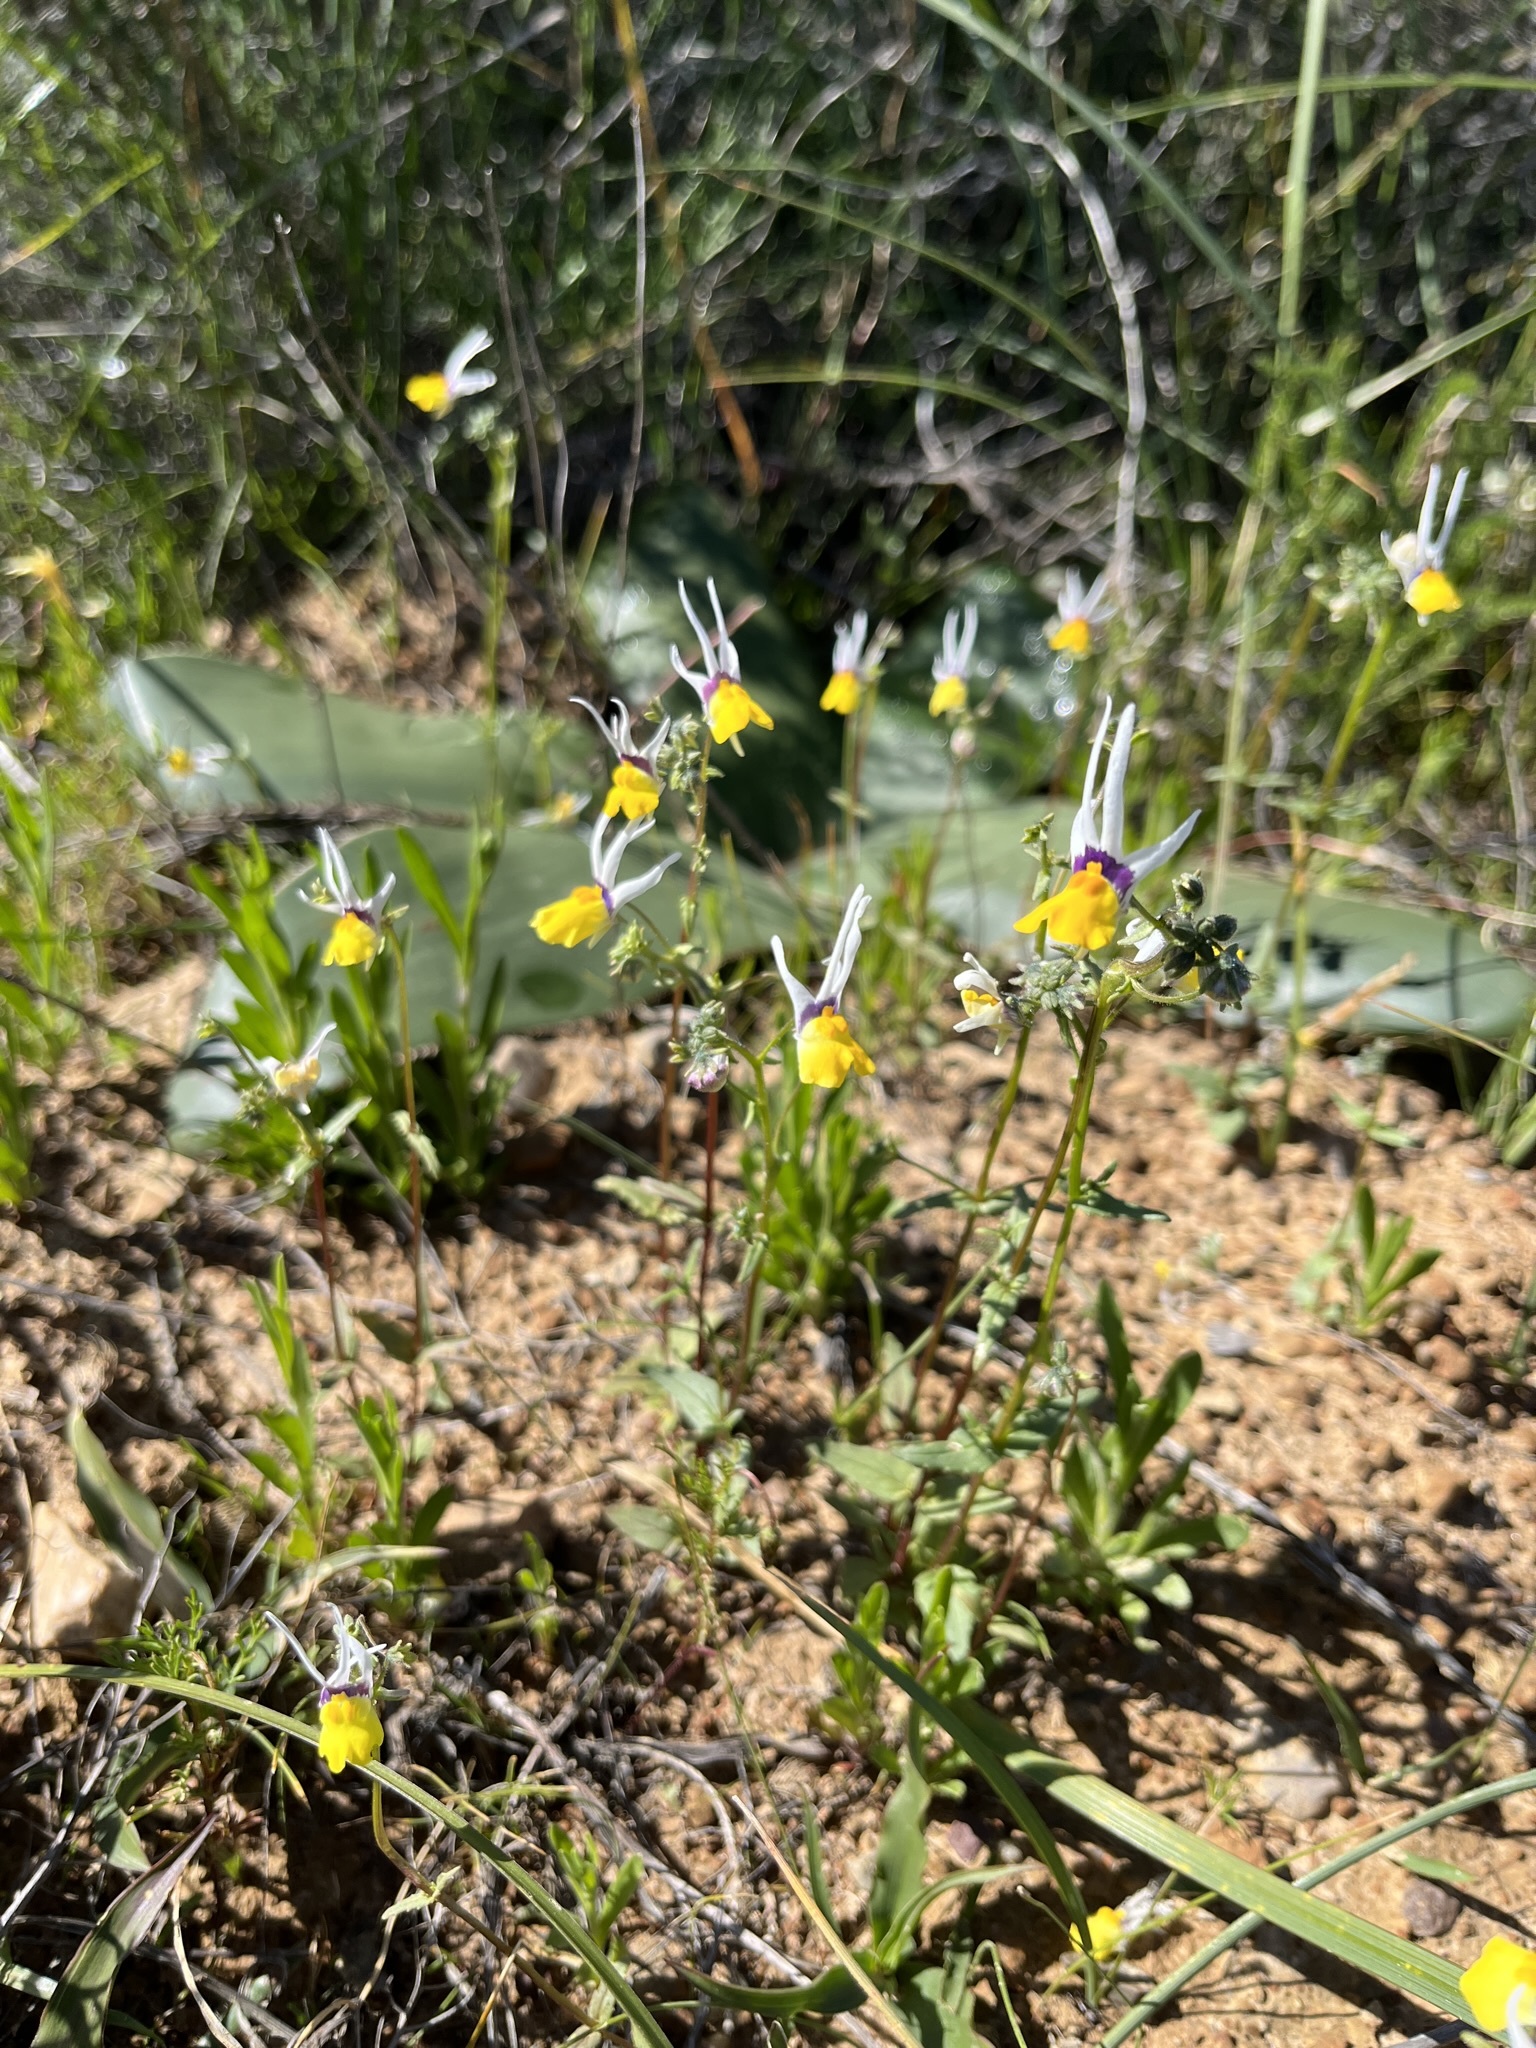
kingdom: Plantae
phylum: Tracheophyta
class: Magnoliopsida
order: Lamiales
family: Scrophulariaceae
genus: Nemesia
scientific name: Nemesia cheiranthus
